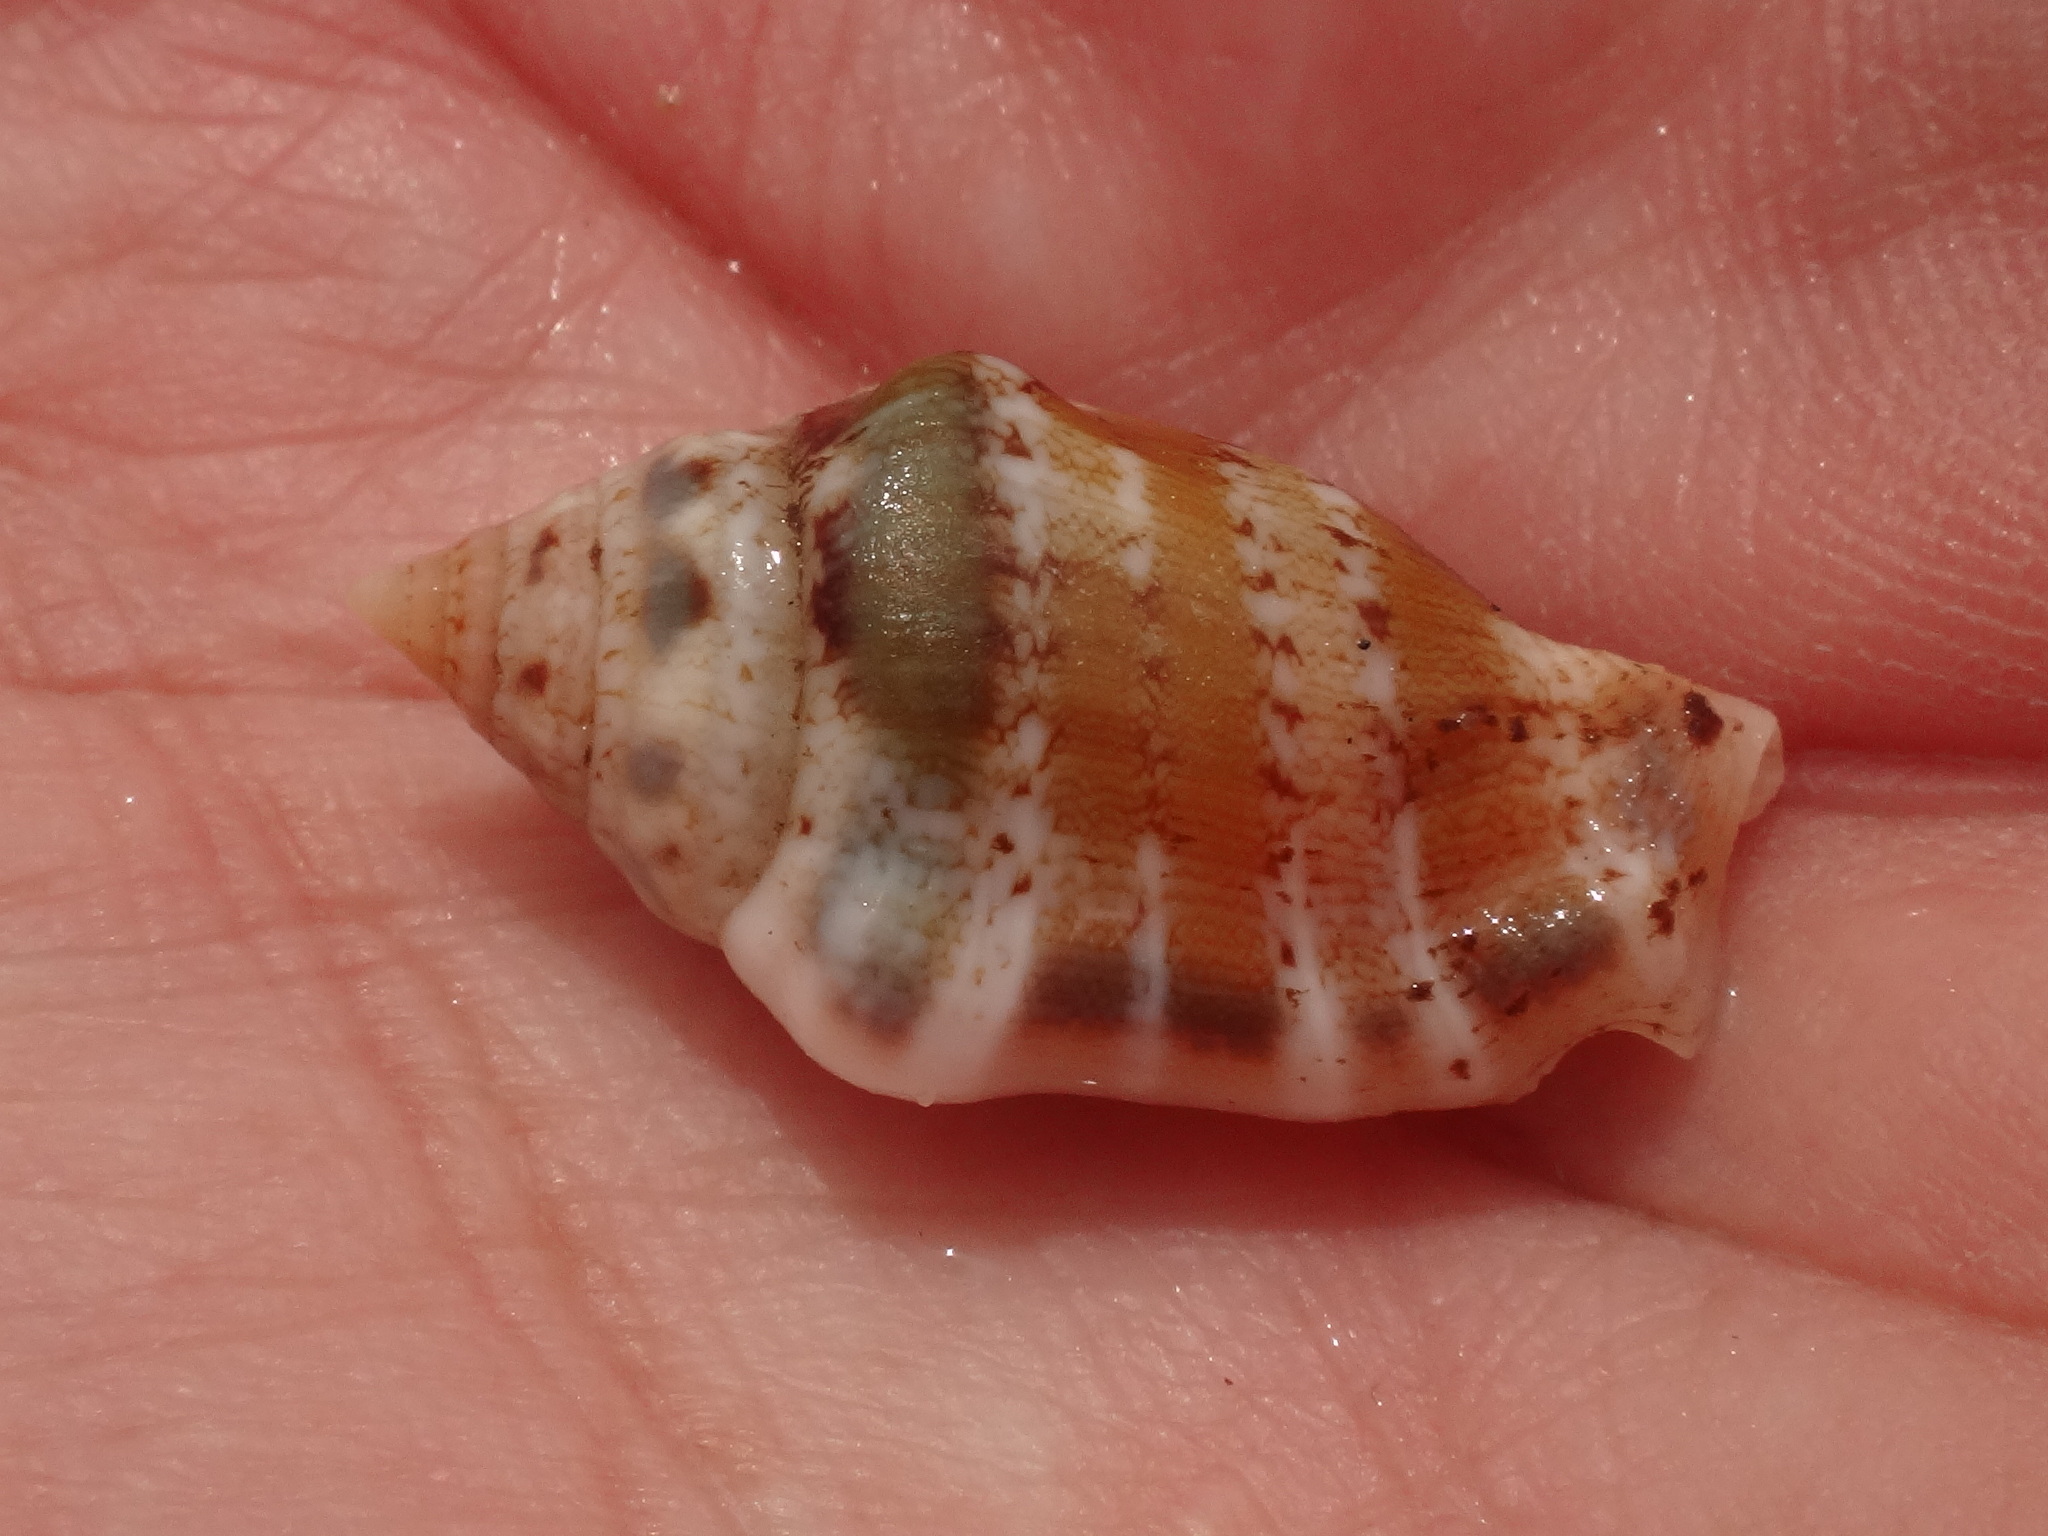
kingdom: Animalia
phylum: Mollusca
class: Gastropoda
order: Littorinimorpha
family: Strombidae
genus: Canarium
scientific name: Canarium mutabile
